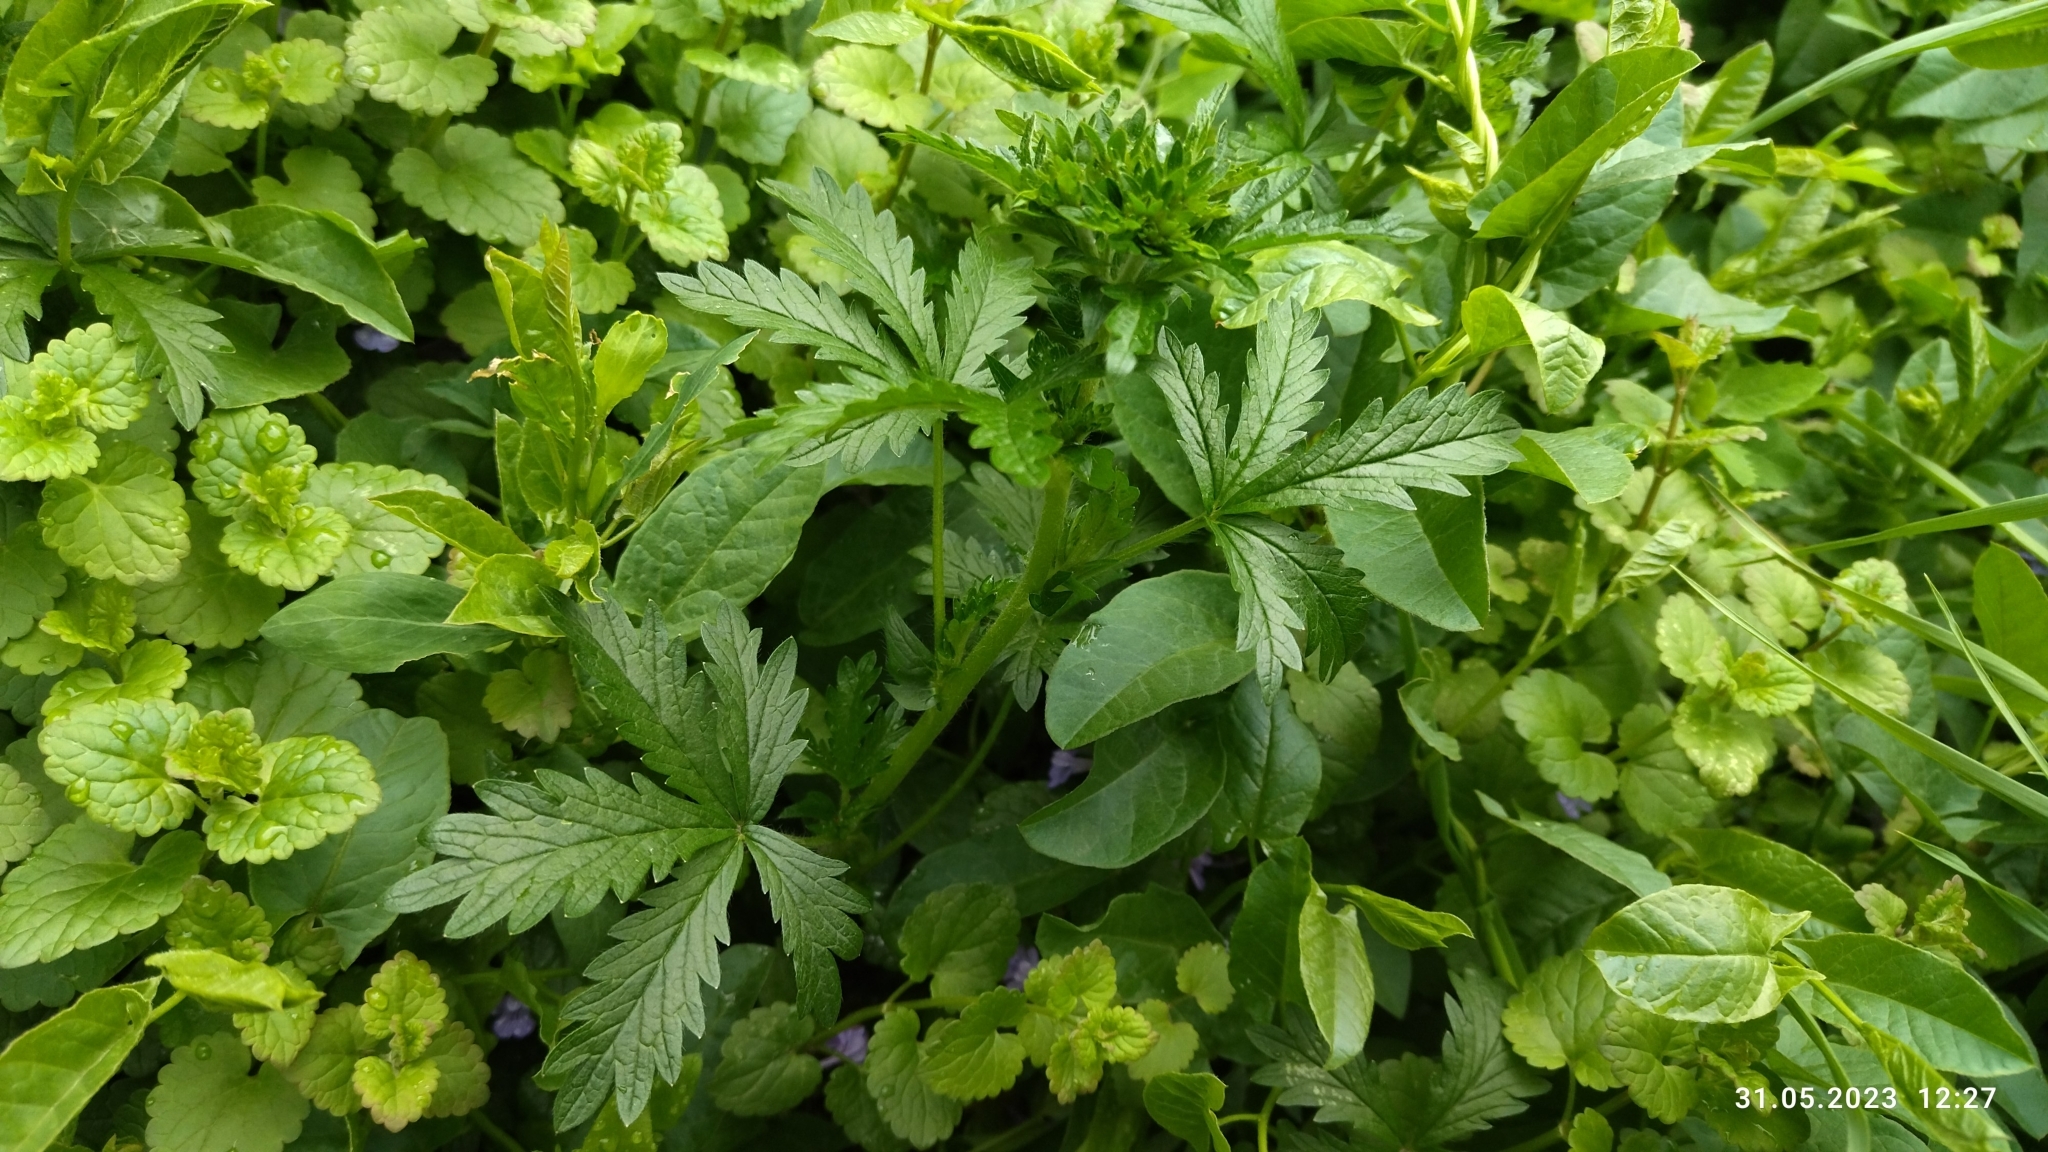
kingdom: Plantae
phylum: Tracheophyta
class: Magnoliopsida
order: Rosales
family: Rosaceae
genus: Potentilla
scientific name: Potentilla intermedia
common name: Downy cinquefoil
